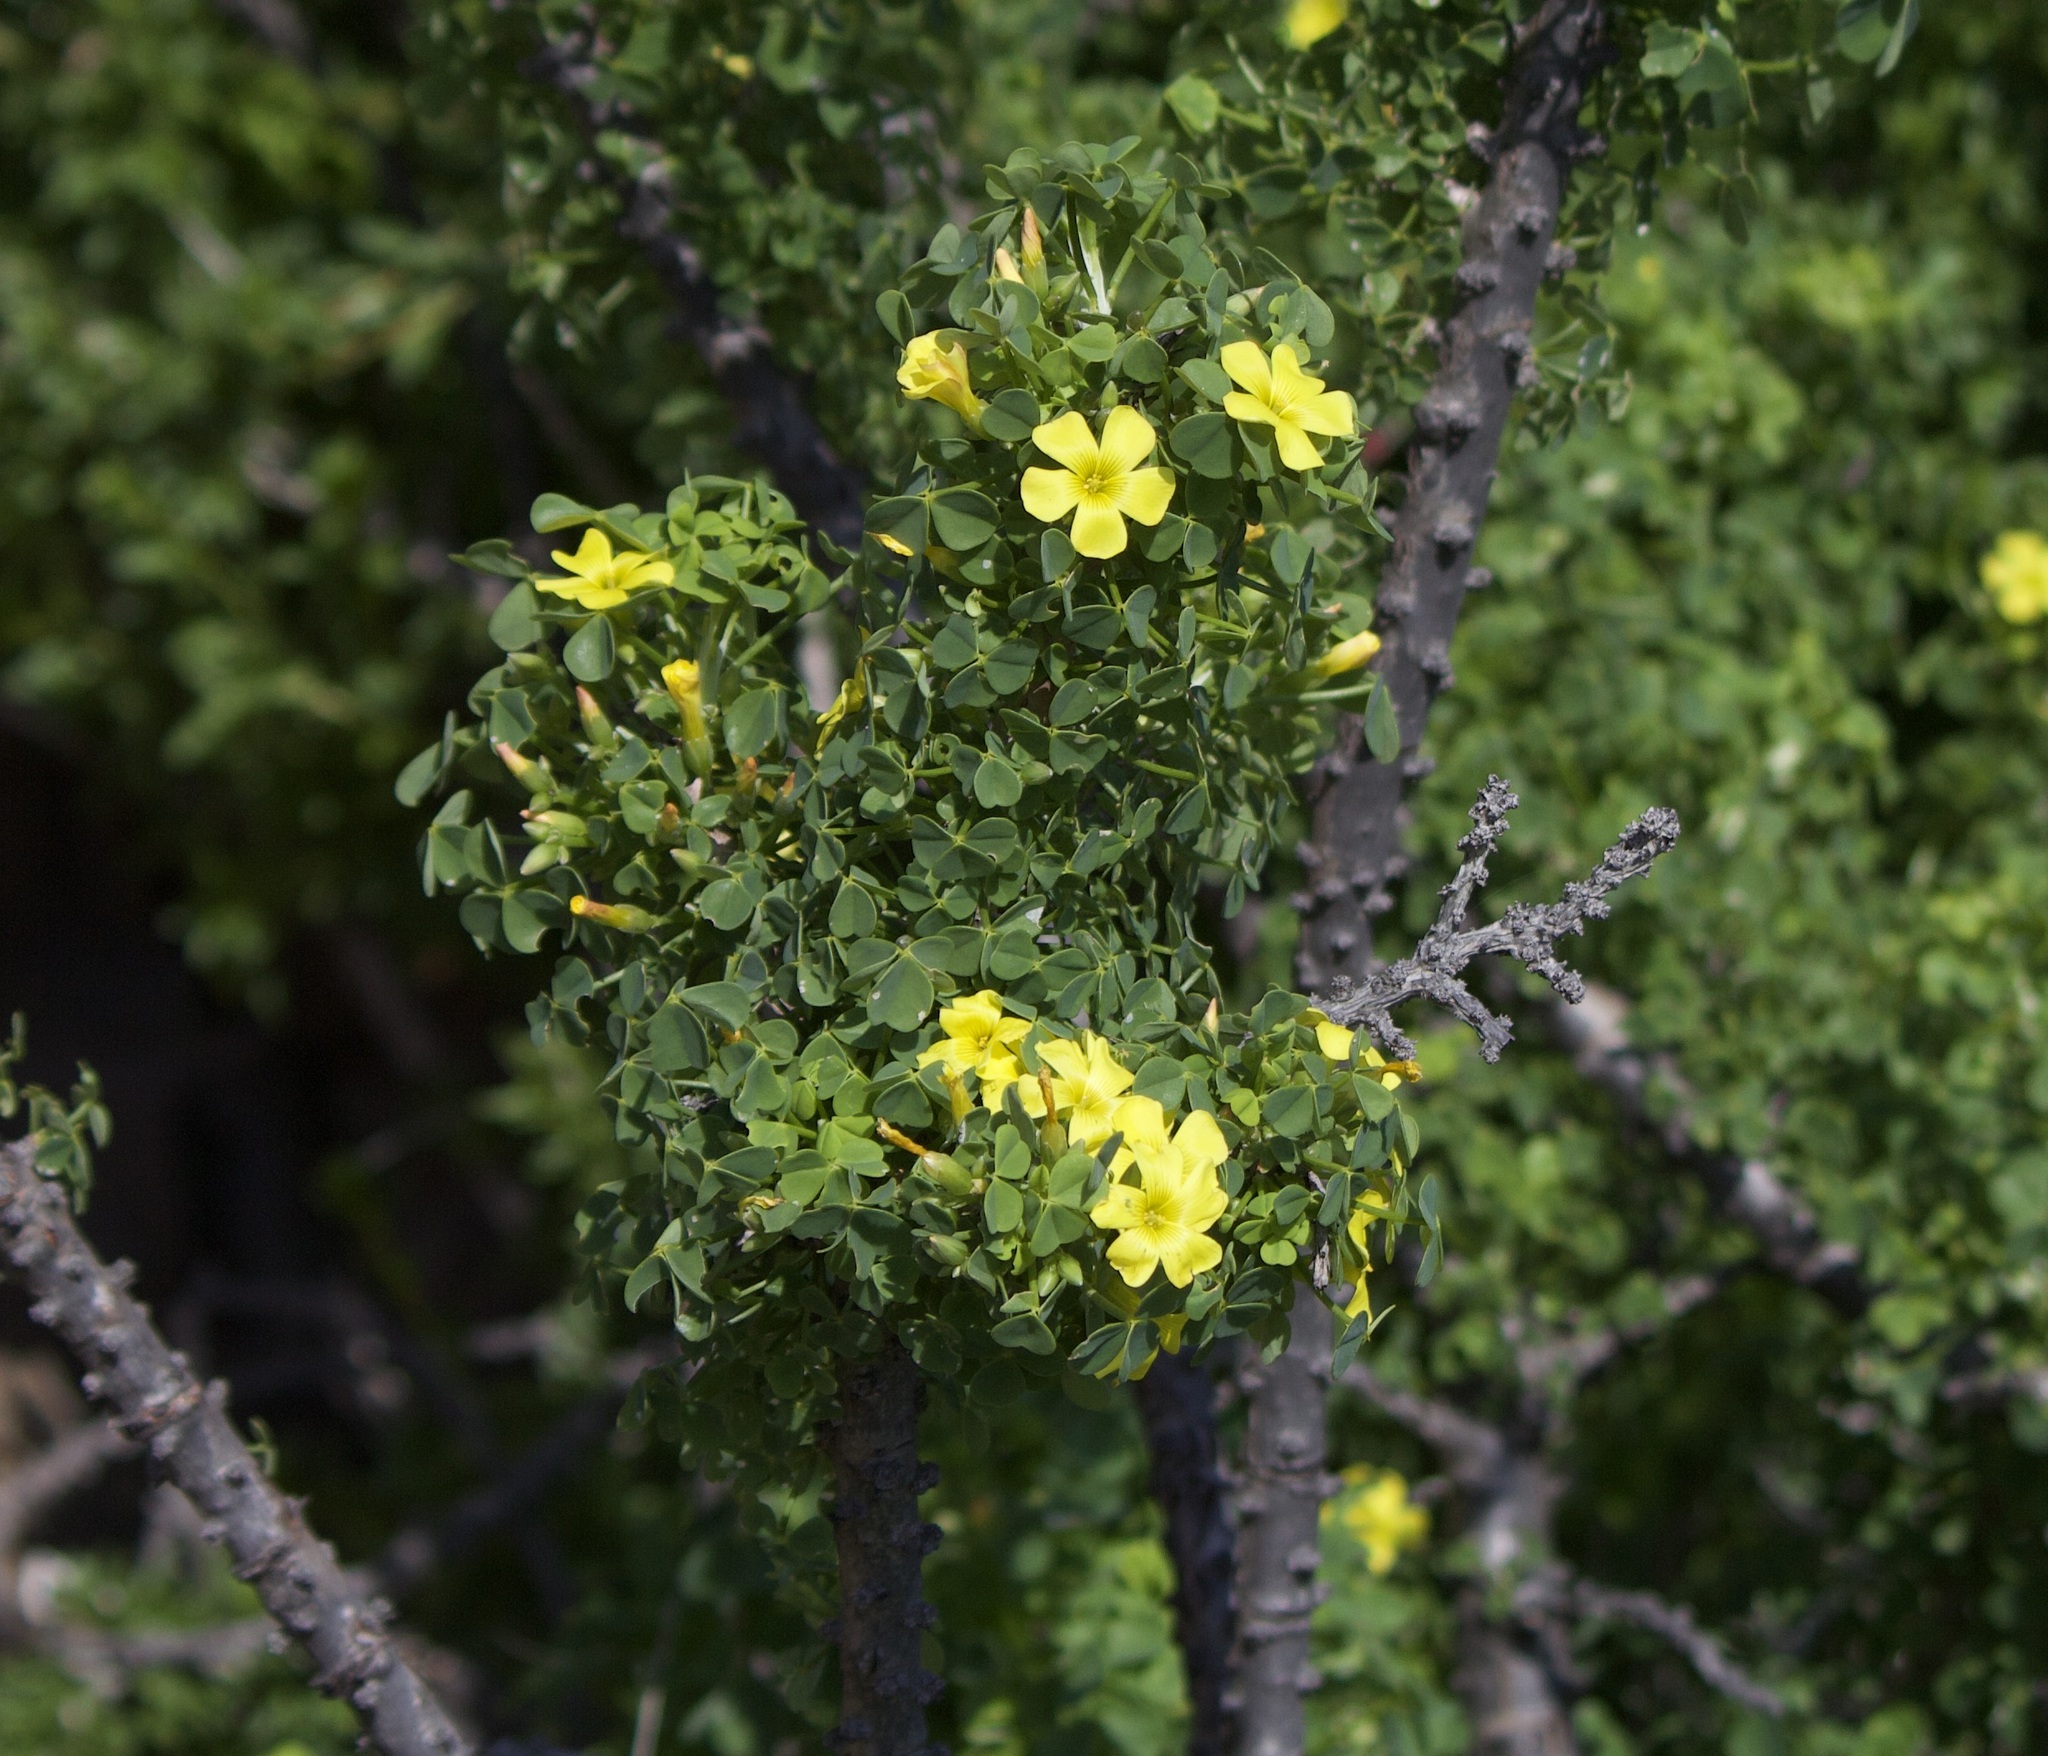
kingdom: Plantae
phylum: Tracheophyta
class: Magnoliopsida
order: Oxalidales
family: Oxalidaceae
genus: Oxalis
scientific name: Oxalis gigantea
